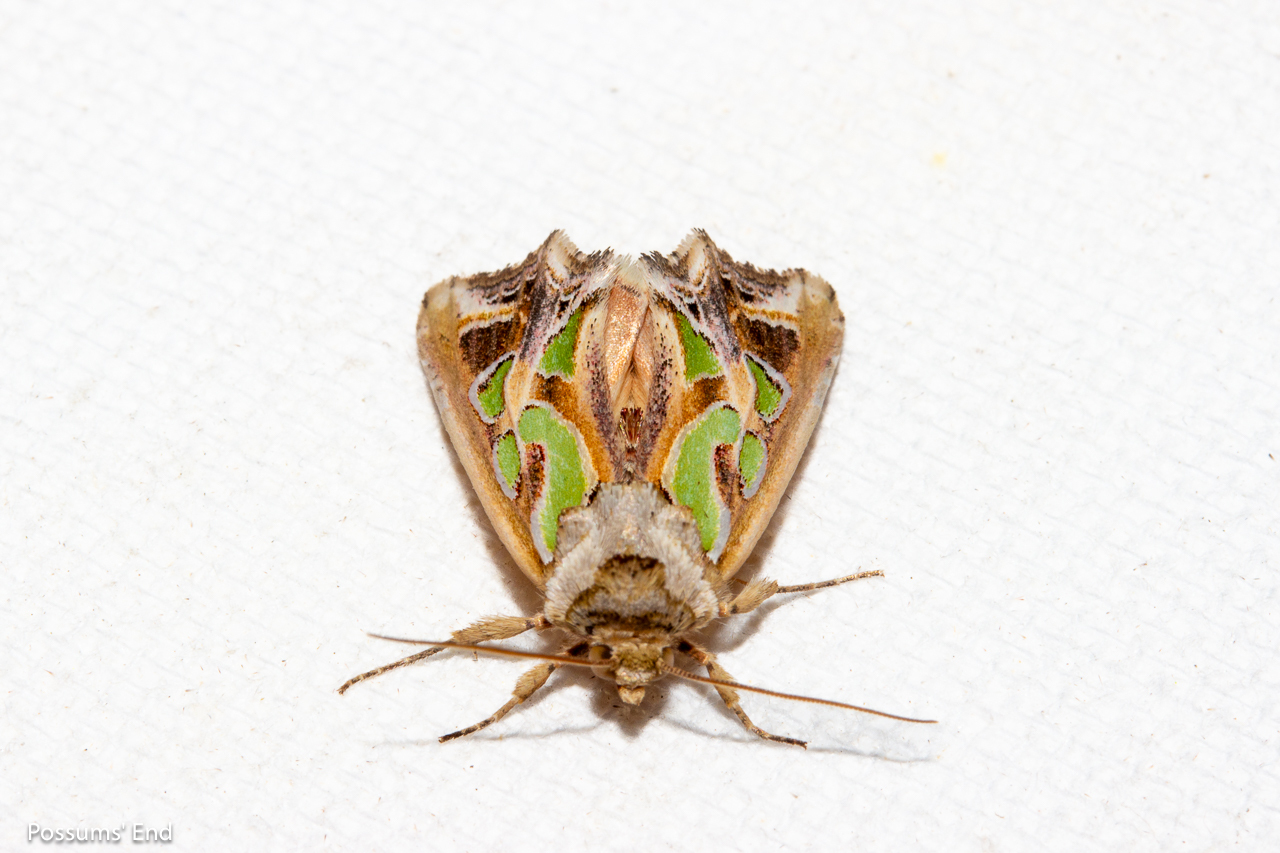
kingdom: Animalia
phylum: Arthropoda
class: Insecta
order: Lepidoptera
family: Noctuidae
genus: Cosmodes
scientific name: Cosmodes elegans
